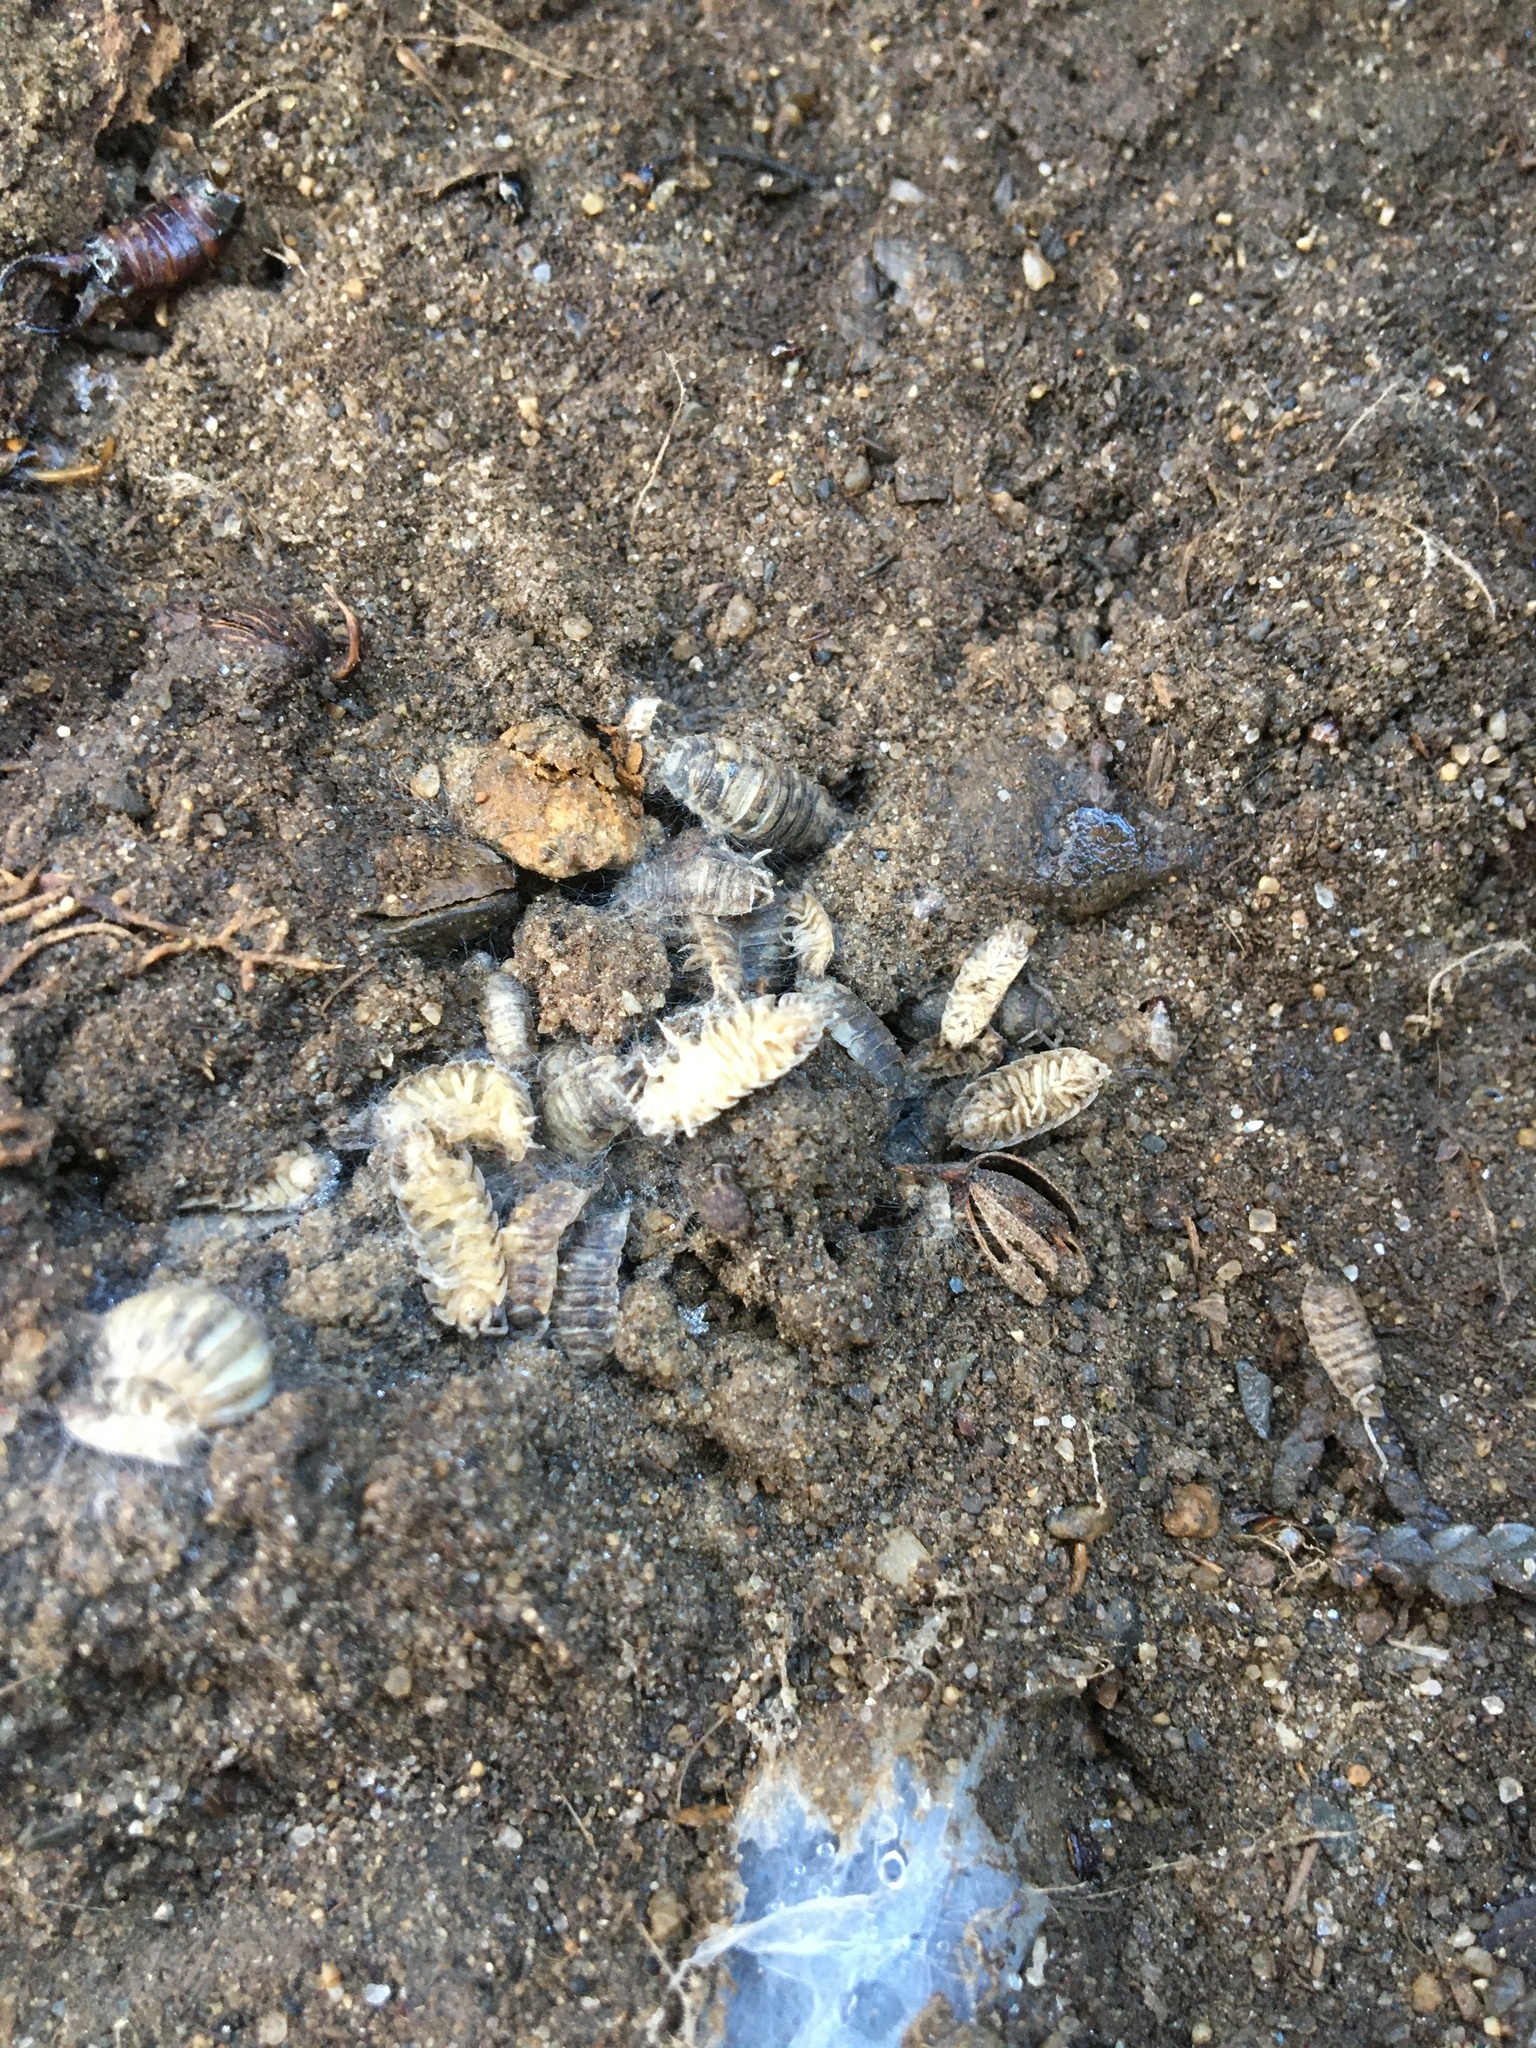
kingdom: Animalia
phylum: Arthropoda
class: Malacostraca
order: Isopoda
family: Porcellionidae
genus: Porcellio
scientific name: Porcellio scaber
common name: Common rough woodlouse
